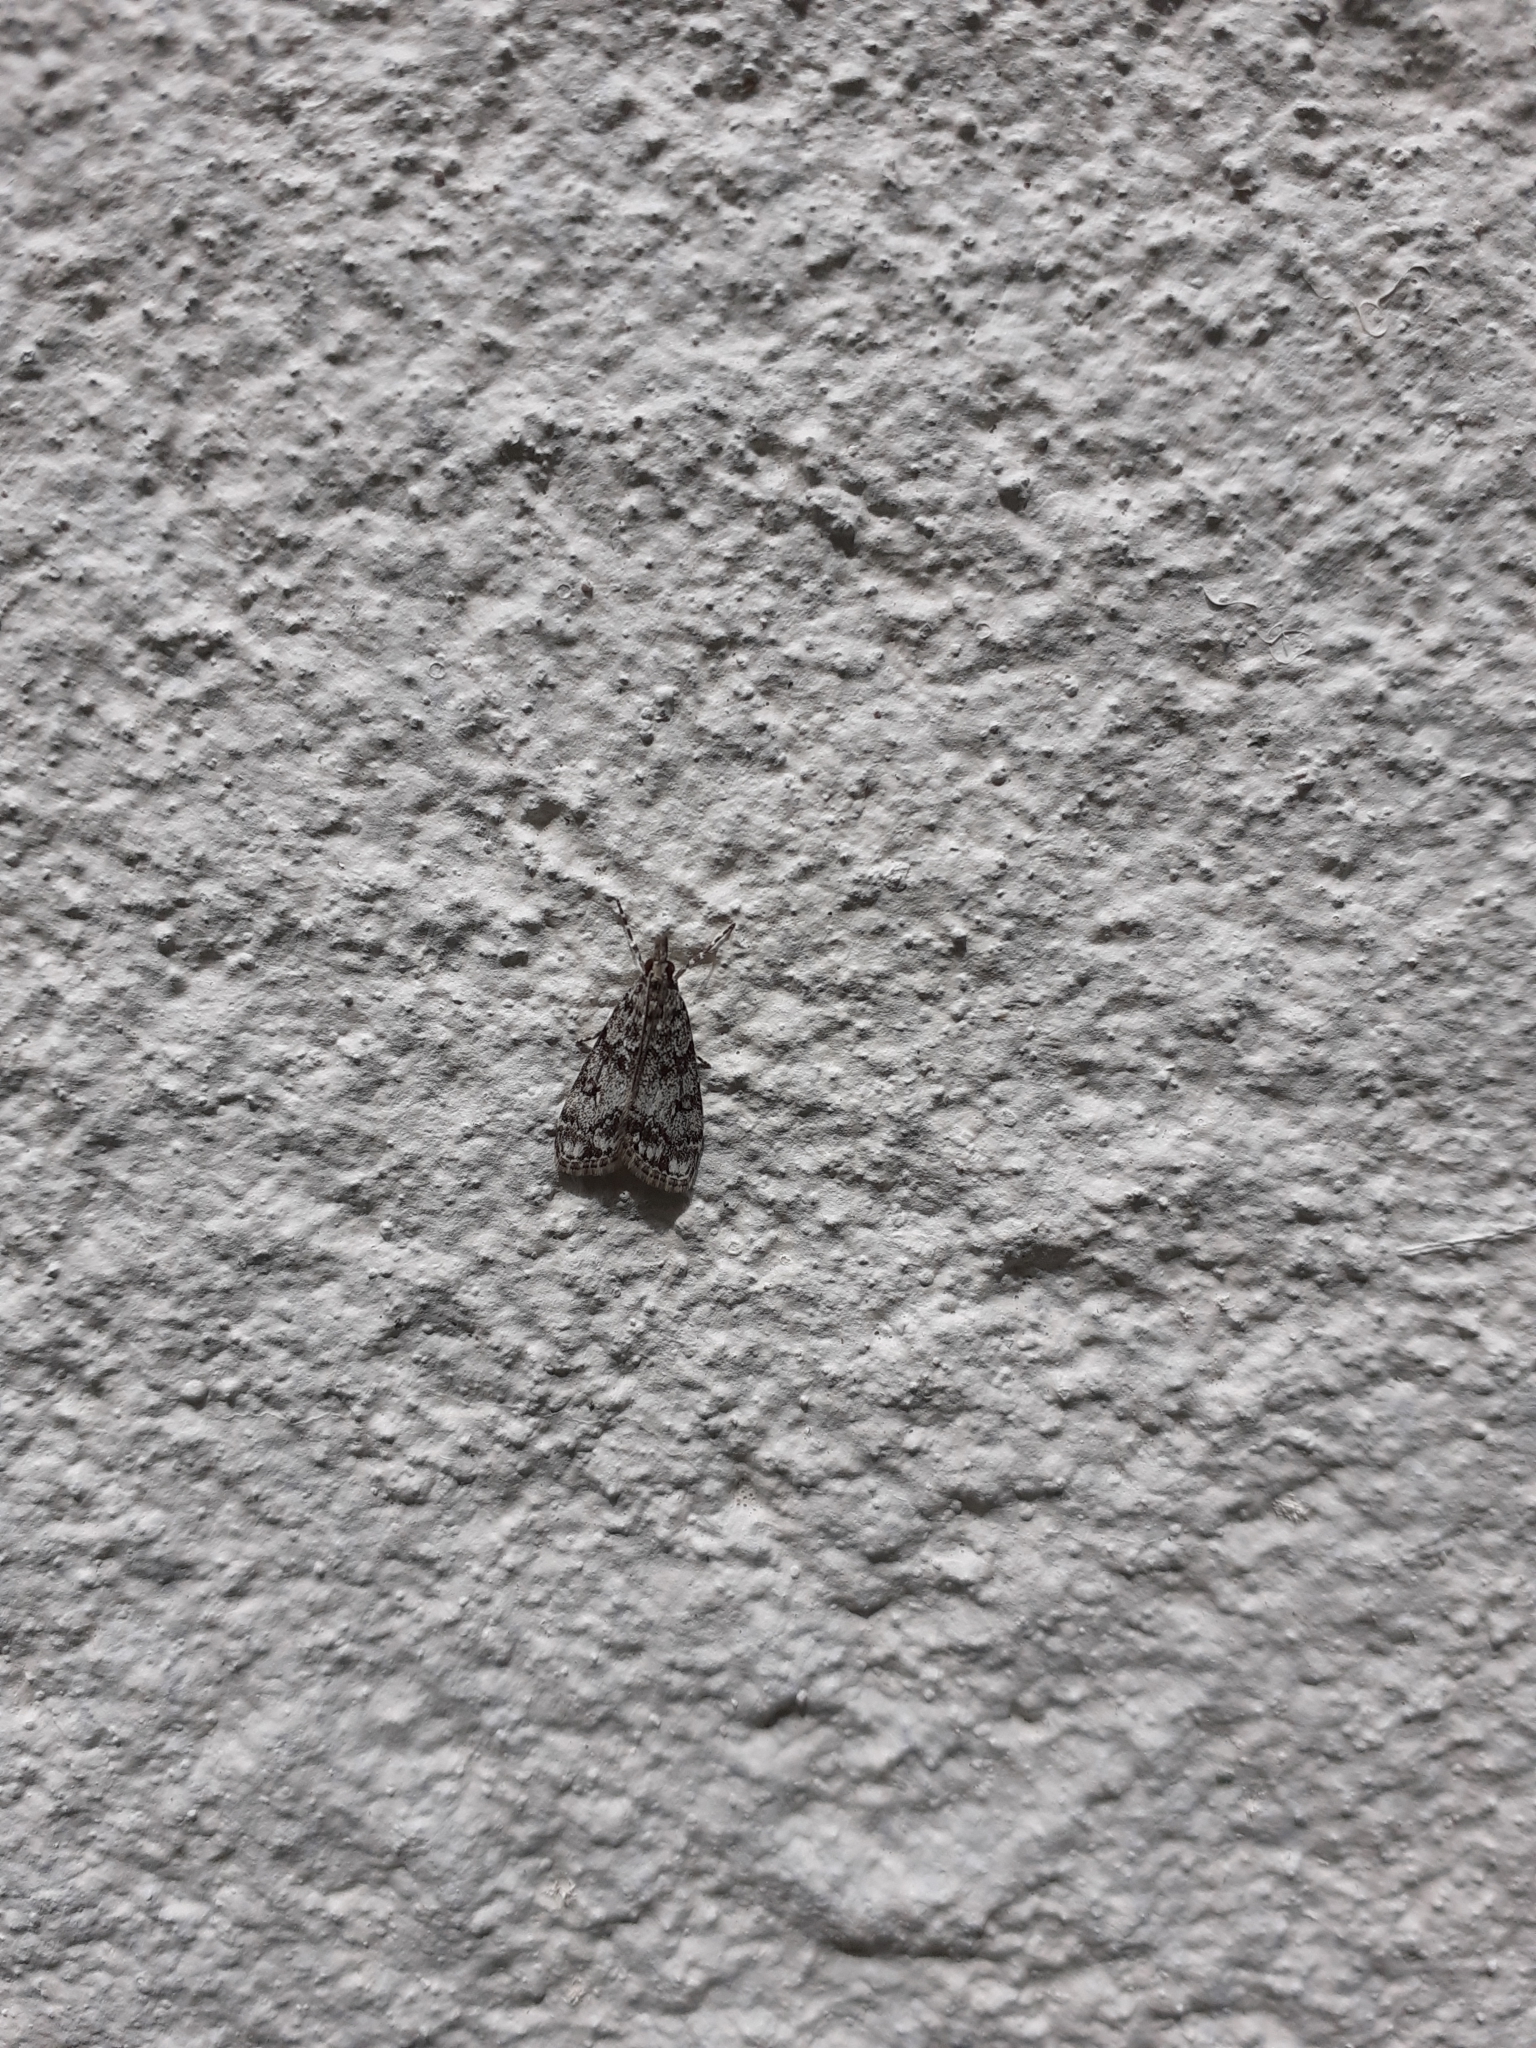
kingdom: Animalia
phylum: Arthropoda
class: Insecta
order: Lepidoptera
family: Crambidae
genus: Eudonia
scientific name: Eudonia lacustrata
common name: Little grey
